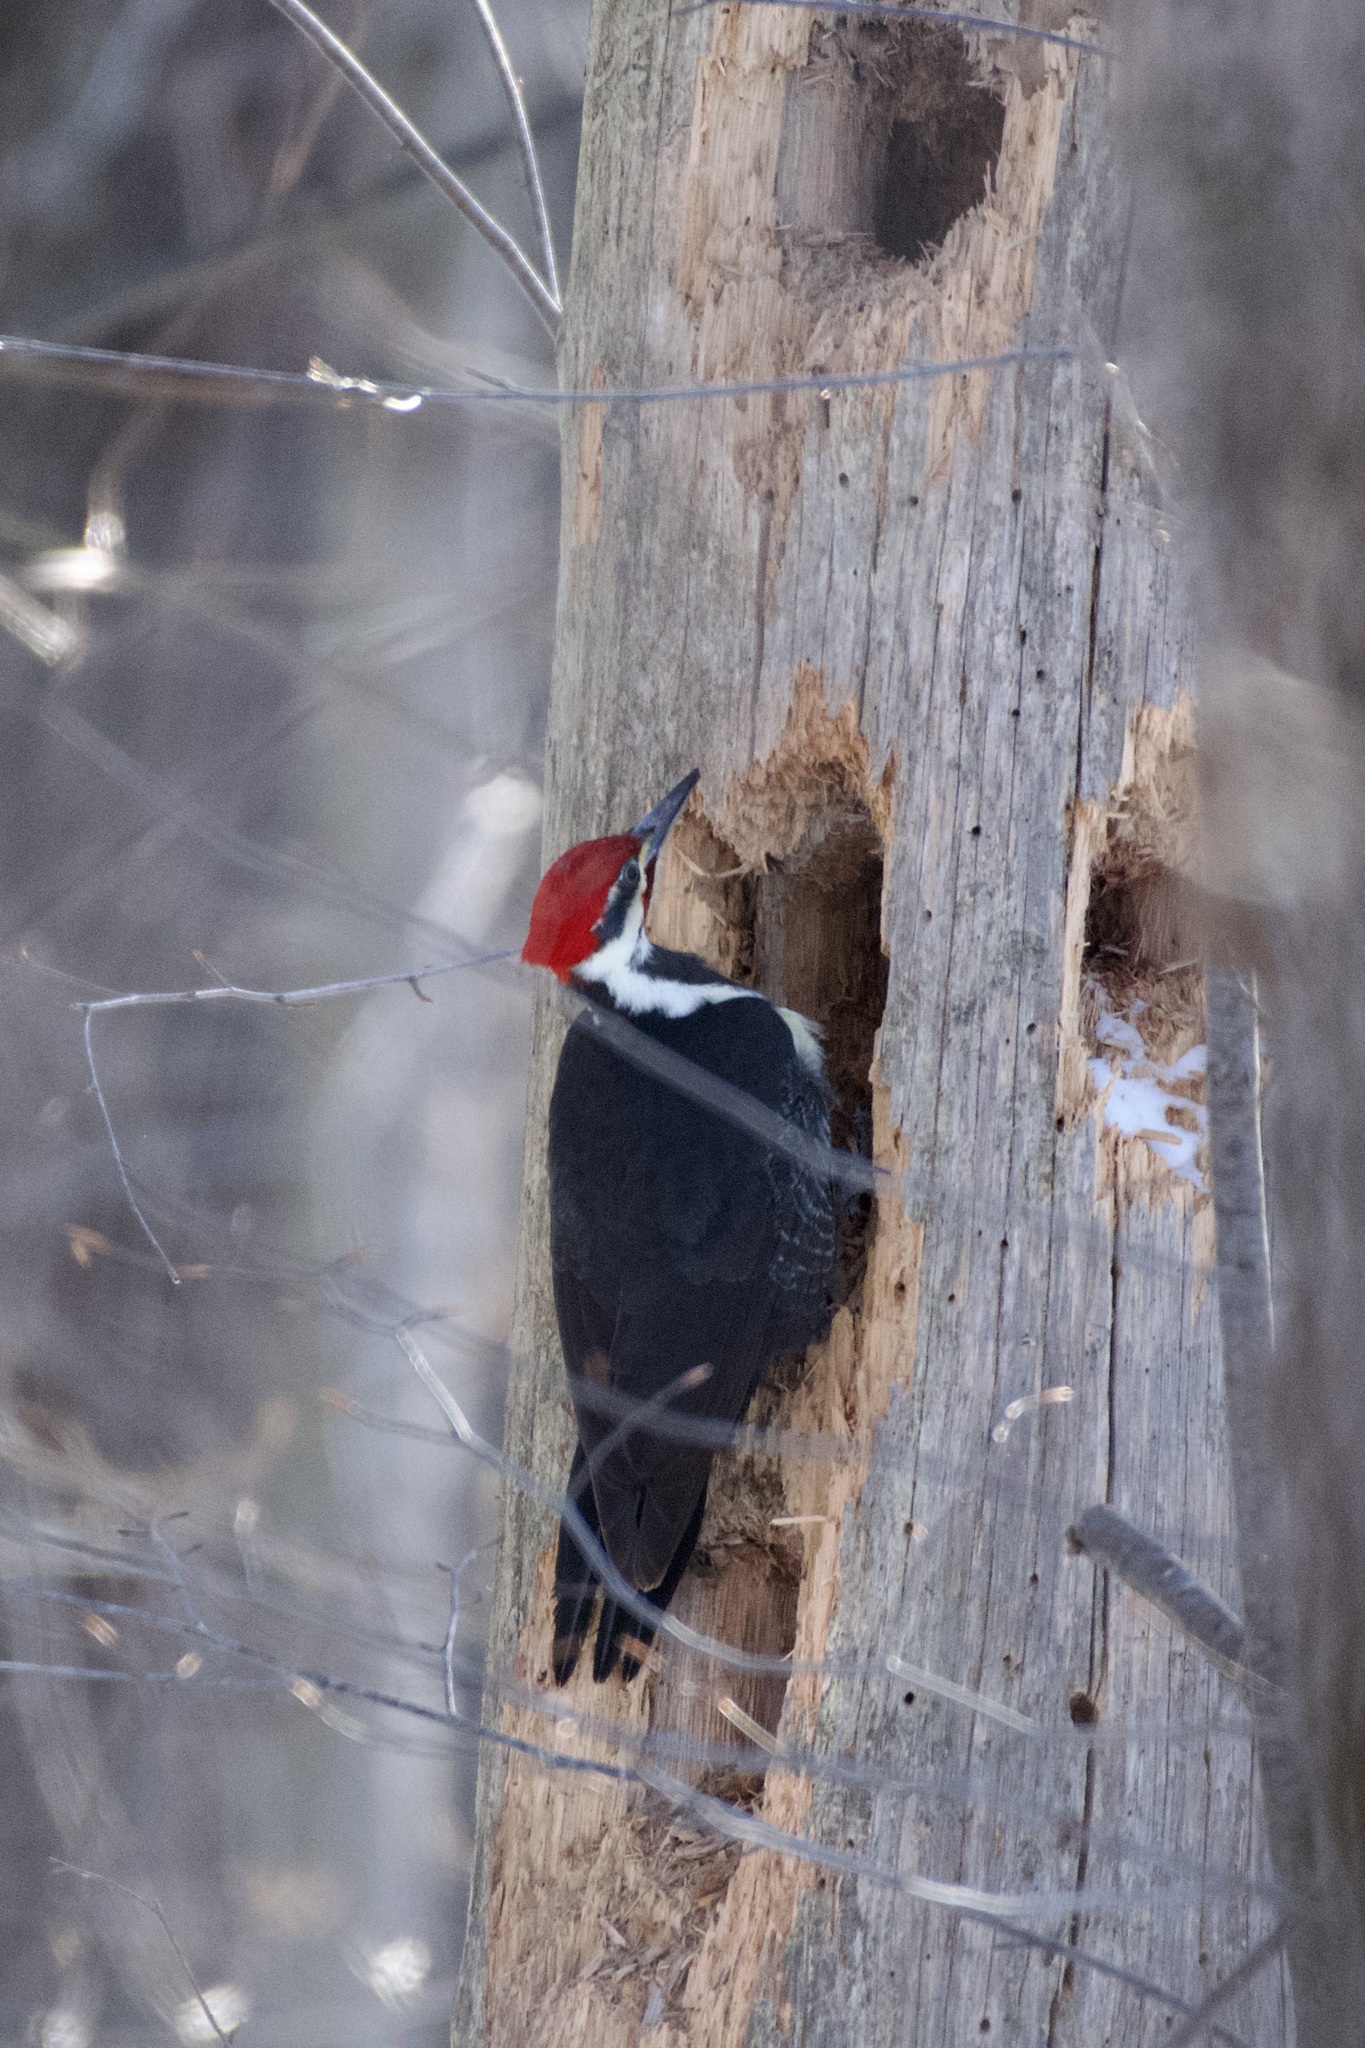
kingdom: Animalia
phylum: Chordata
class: Aves
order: Piciformes
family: Picidae
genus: Dryocopus
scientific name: Dryocopus pileatus
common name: Pileated woodpecker
